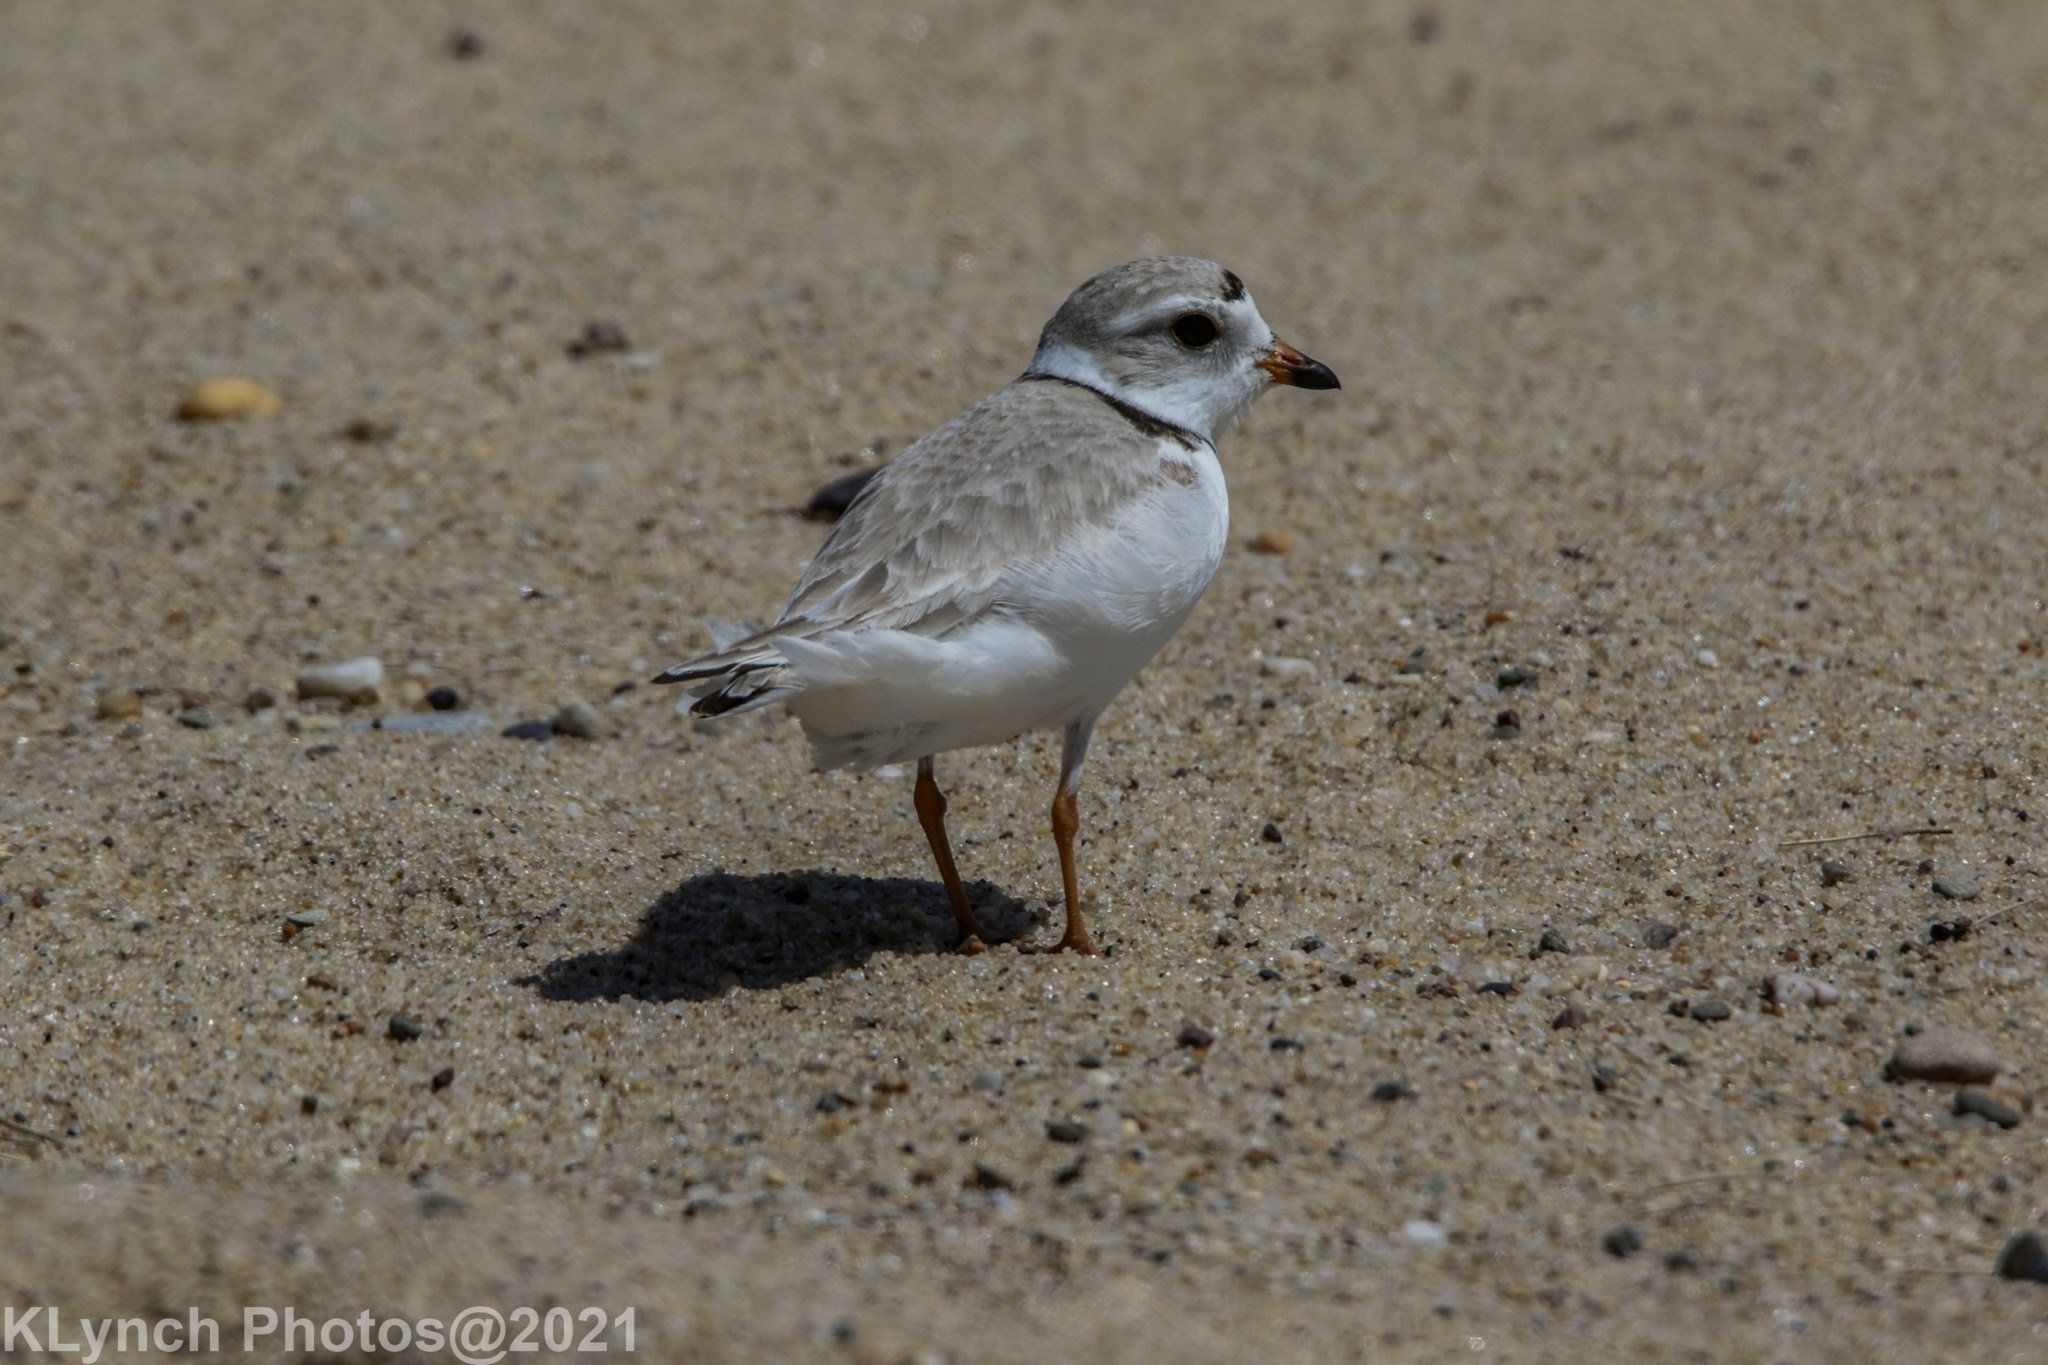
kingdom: Animalia
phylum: Chordata
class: Aves
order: Charadriiformes
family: Charadriidae
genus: Charadrius
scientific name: Charadrius melodus
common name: Piping plover
